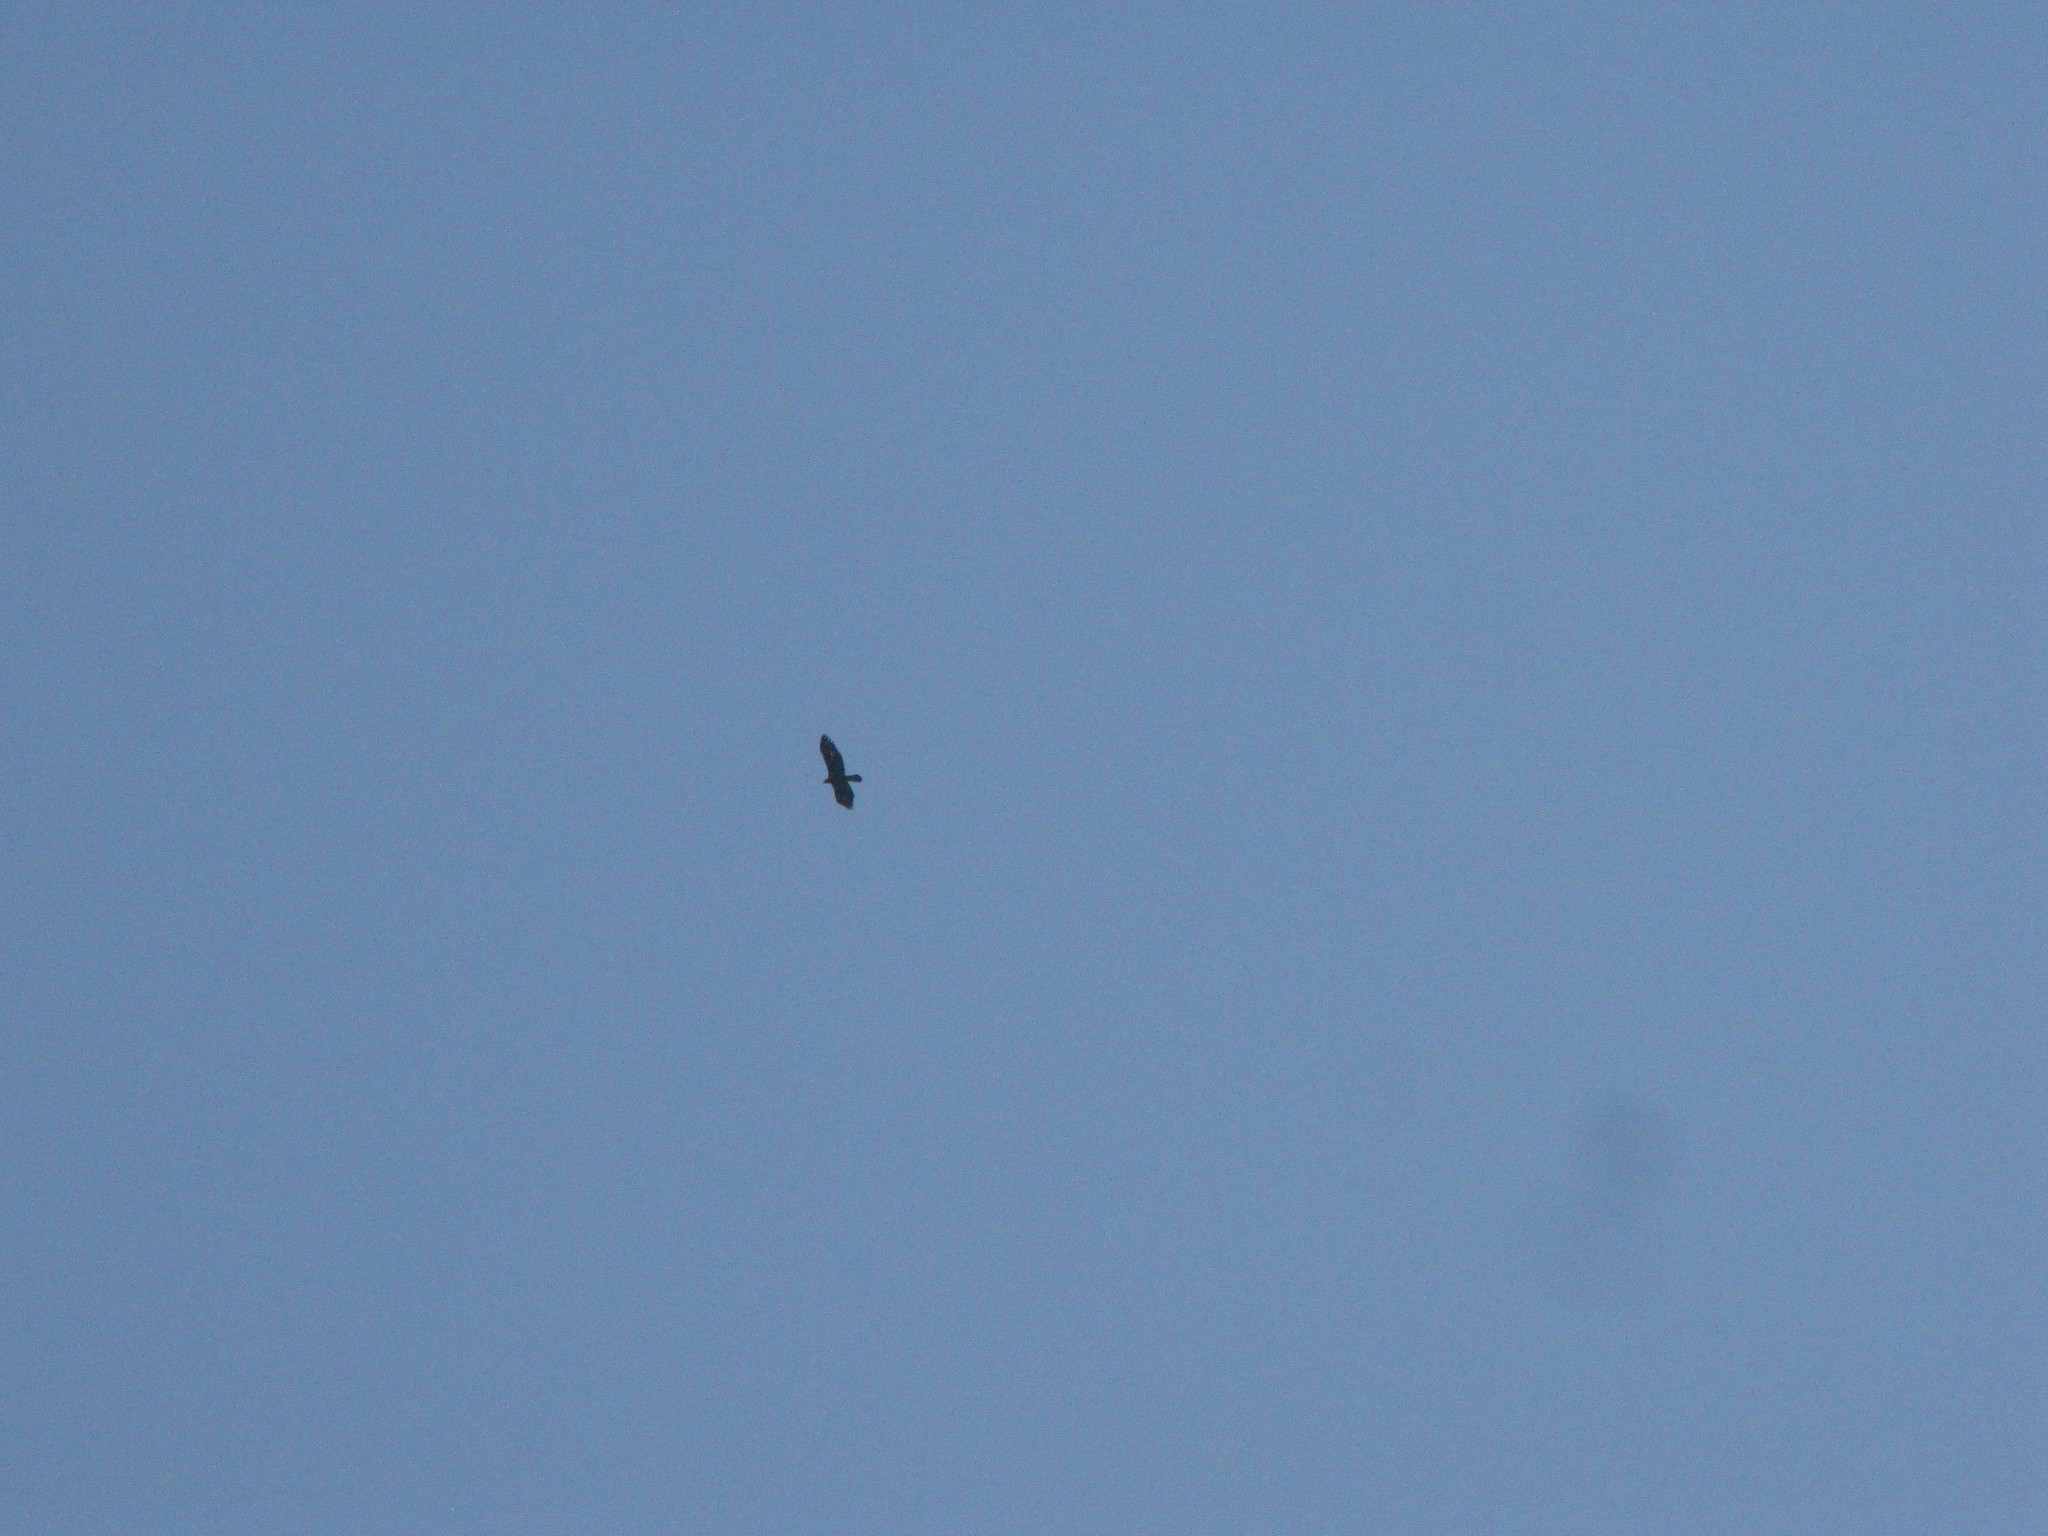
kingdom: Animalia
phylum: Chordata
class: Aves
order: Accipitriformes
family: Accipitridae
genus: Aquila
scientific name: Aquila chrysaetos
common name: Golden eagle
